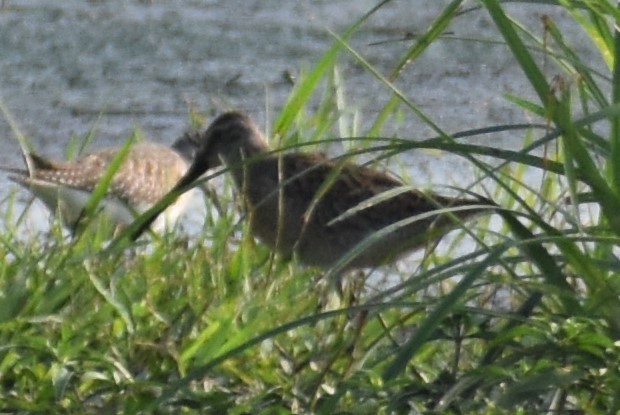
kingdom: Animalia
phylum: Chordata
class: Aves
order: Charadriiformes
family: Scolopacidae
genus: Limnodromus
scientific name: Limnodromus
